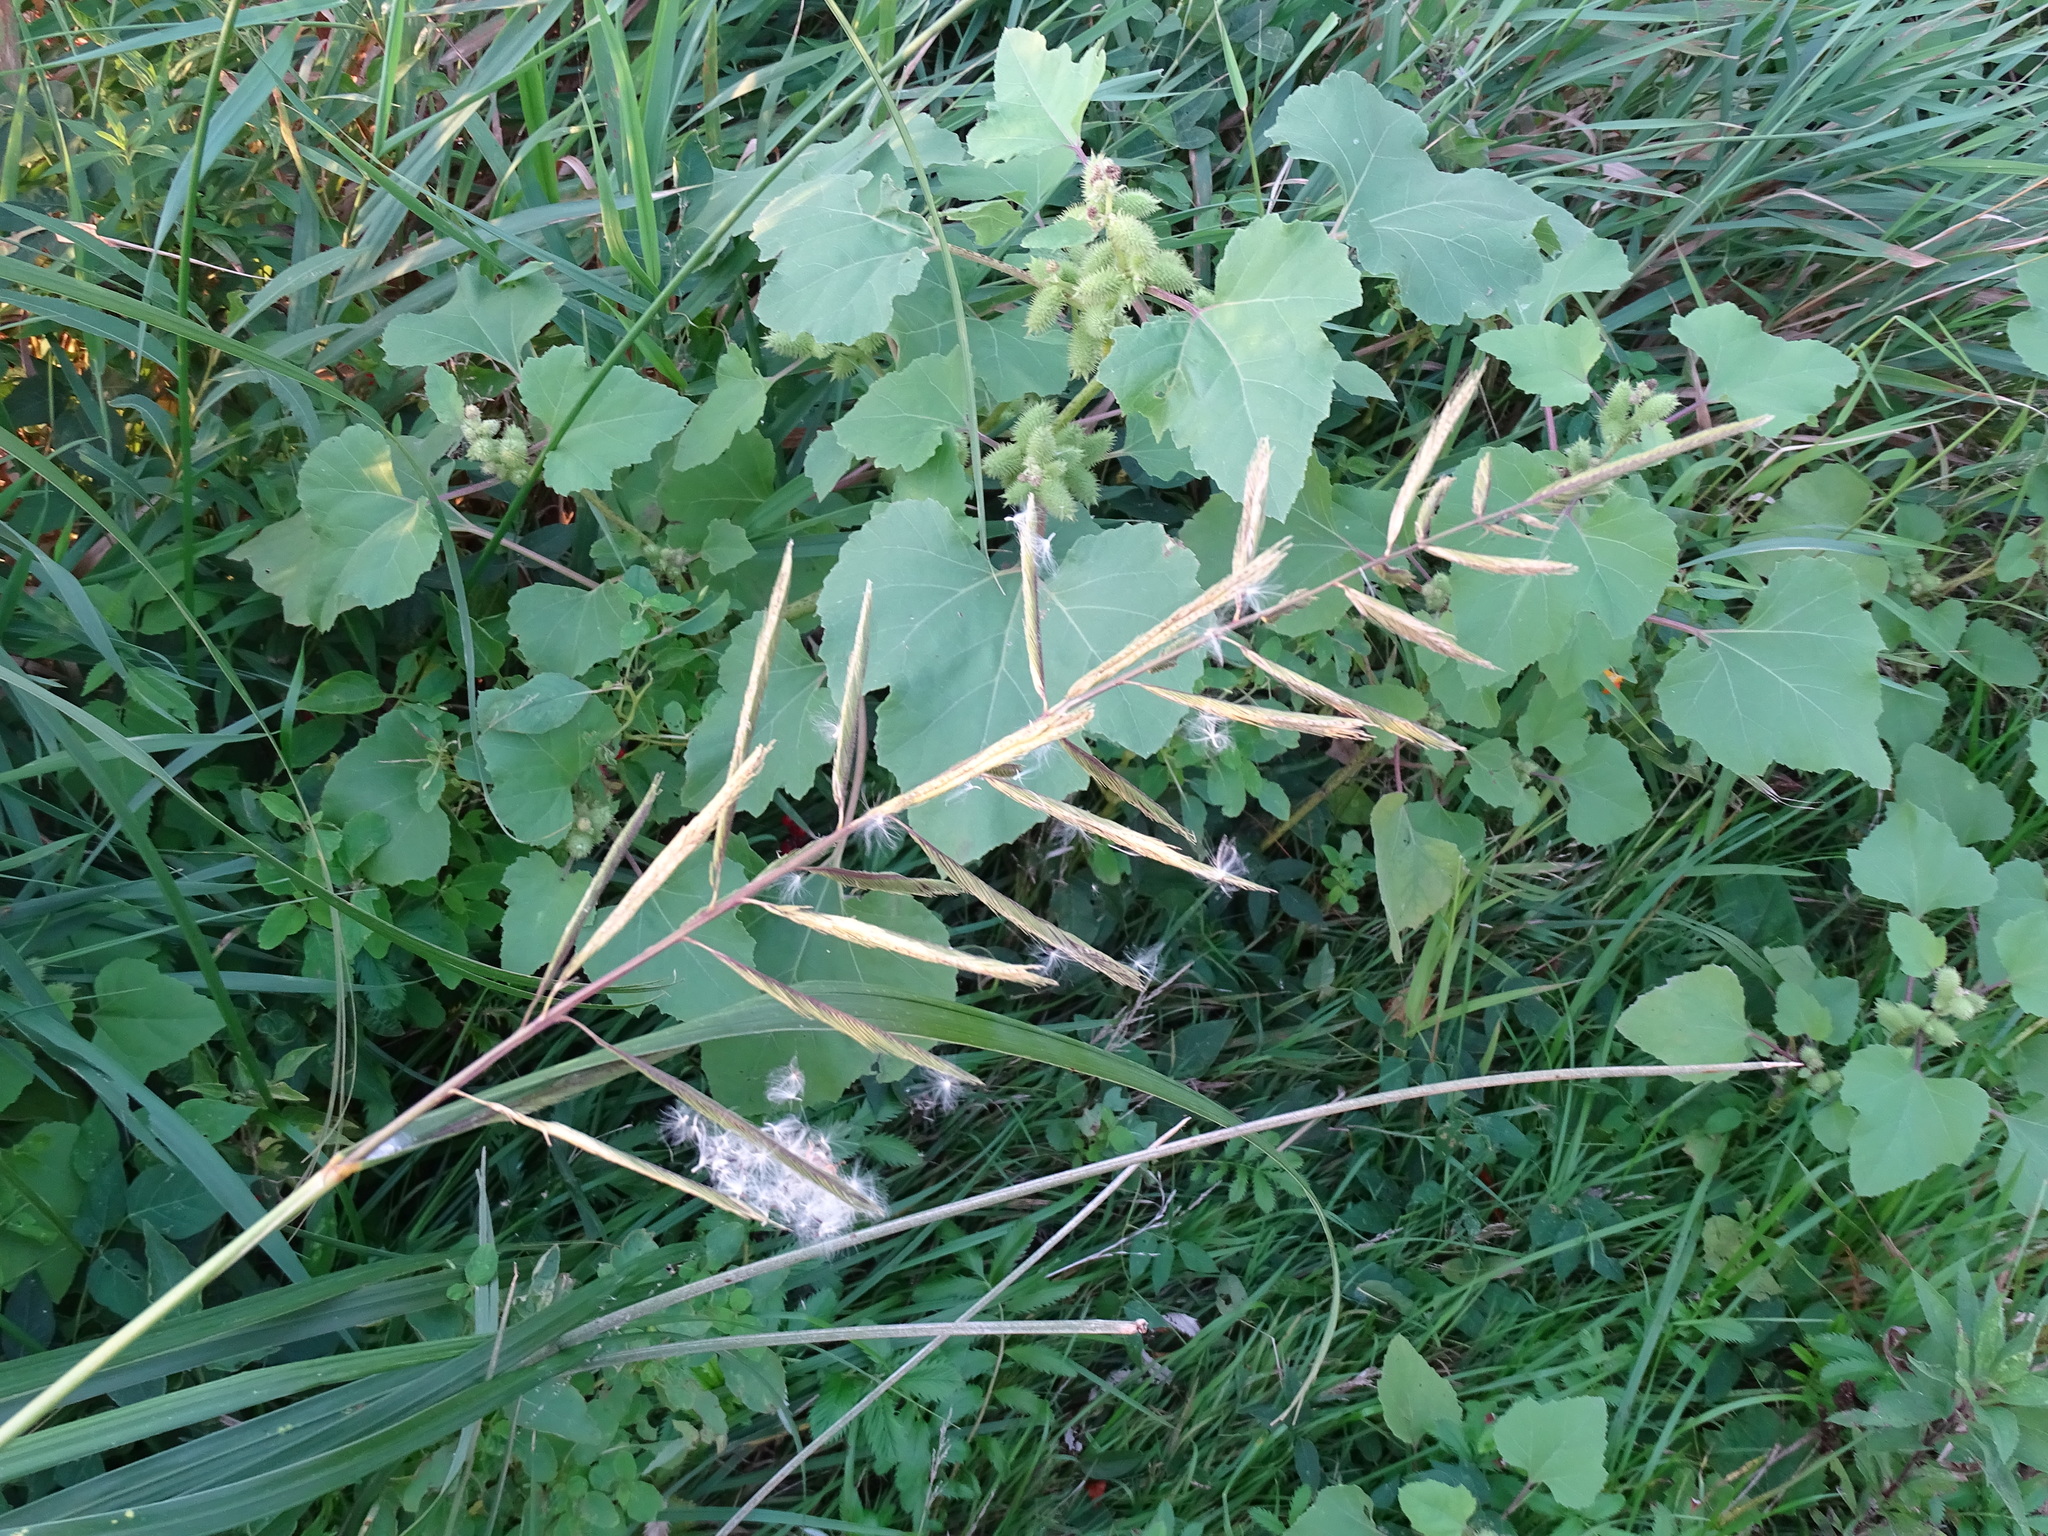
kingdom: Plantae
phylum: Tracheophyta
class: Liliopsida
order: Poales
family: Poaceae
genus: Sporobolus
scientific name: Sporobolus michauxianus
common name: Freshwater cordgrass
